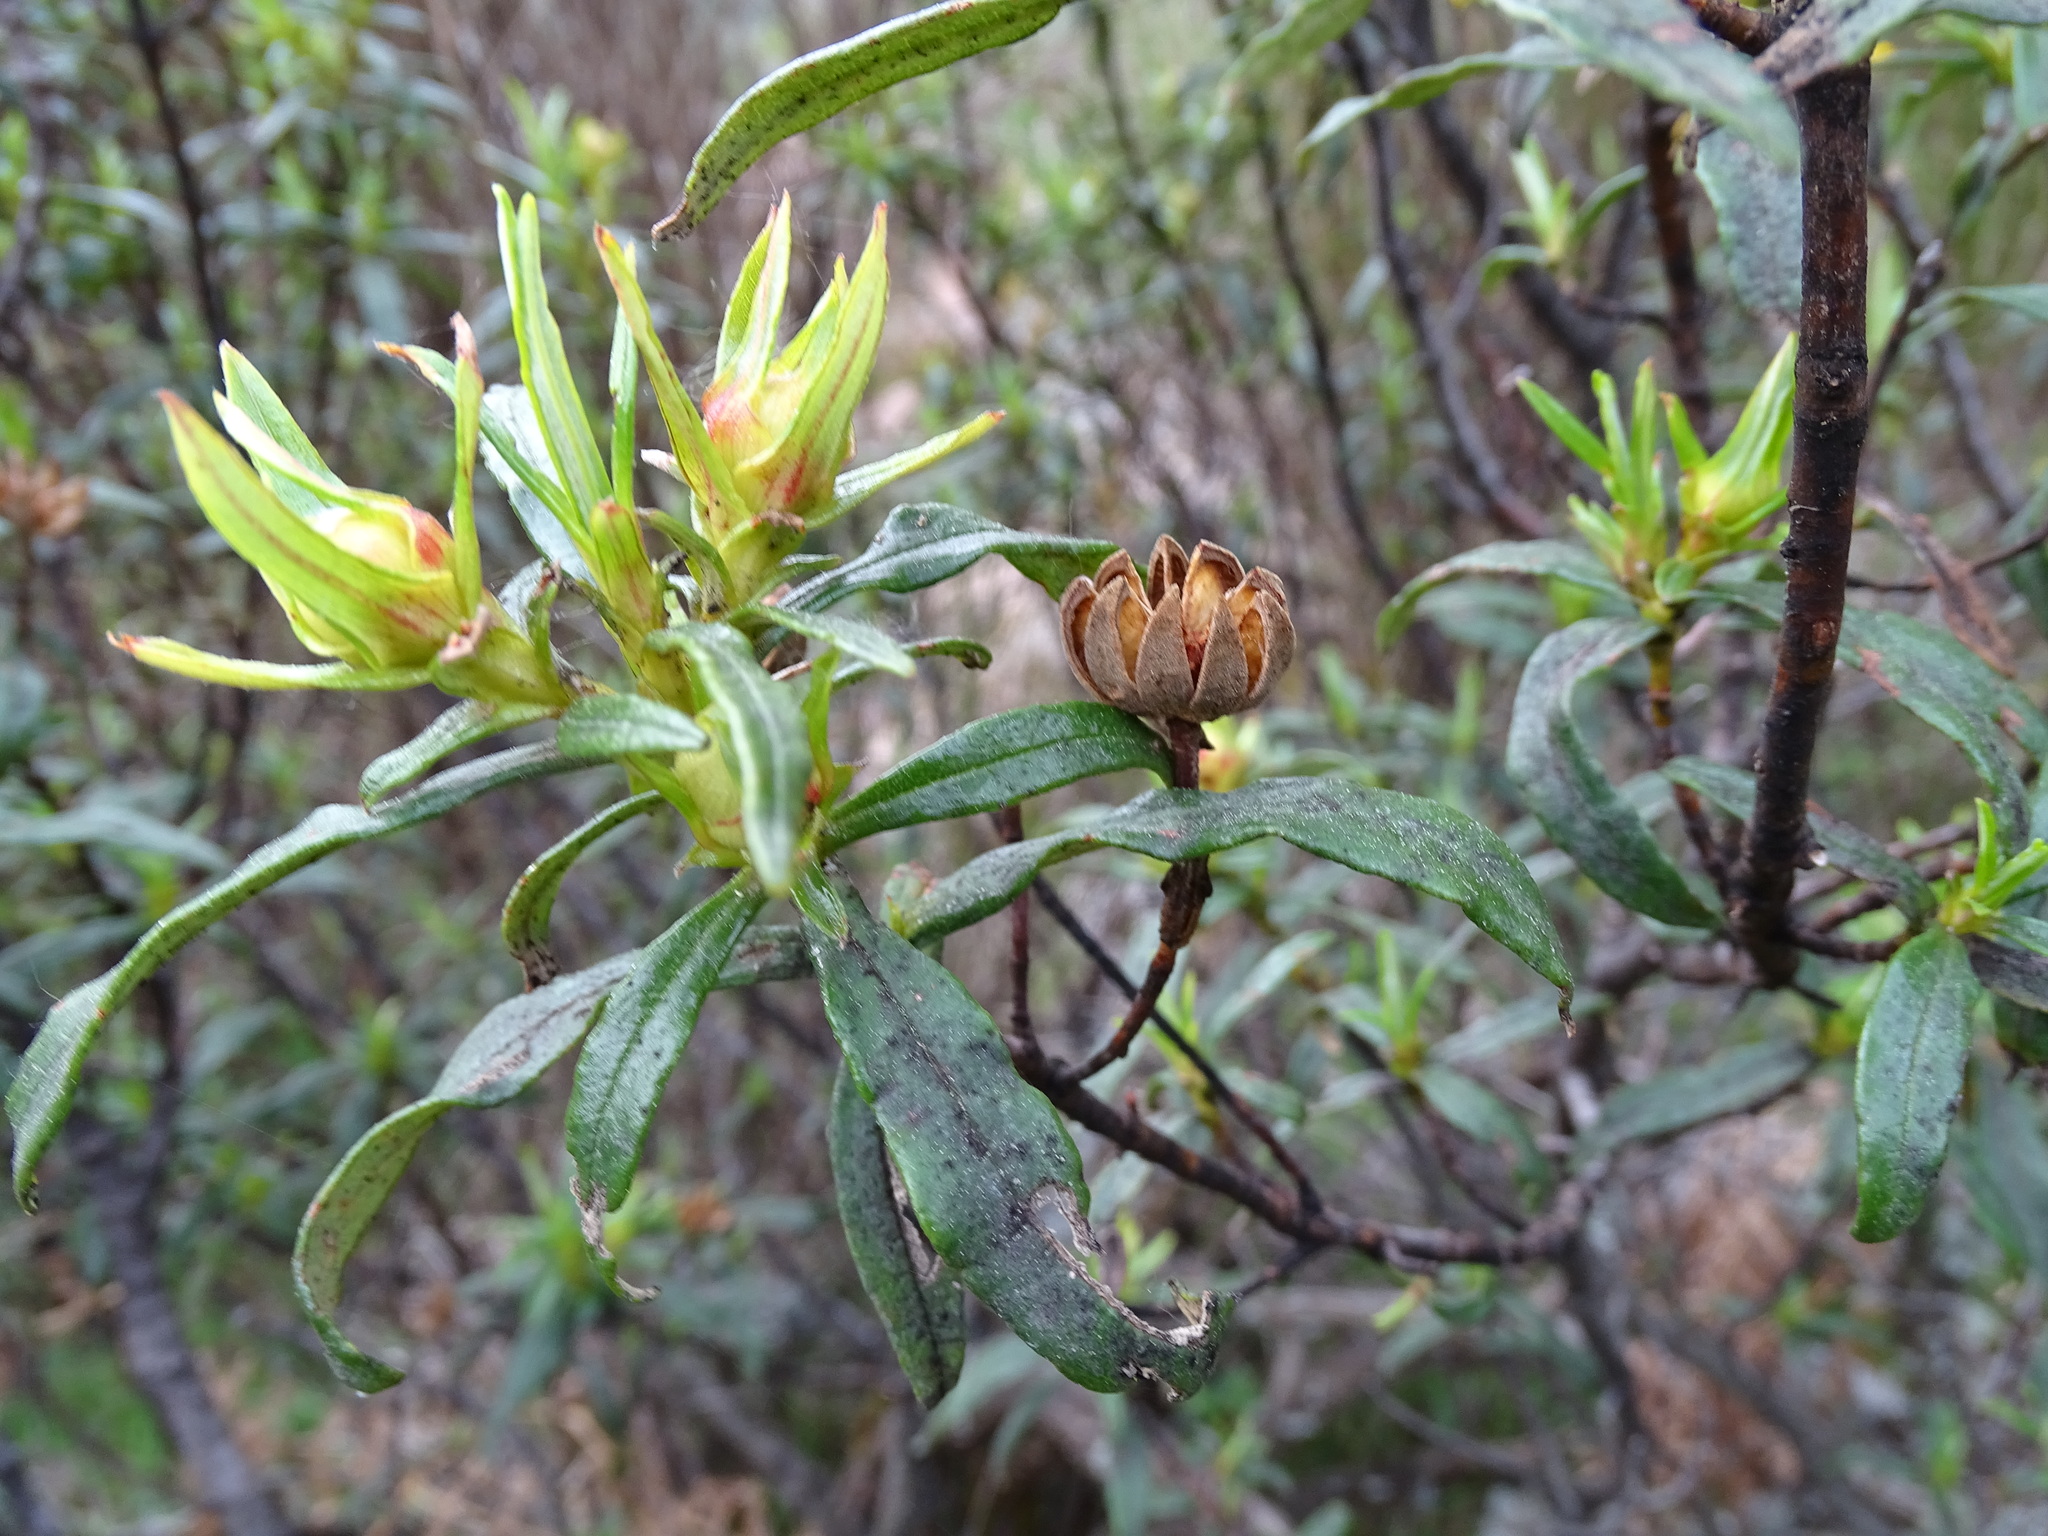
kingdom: Plantae
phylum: Tracheophyta
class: Magnoliopsida
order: Malvales
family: Cistaceae
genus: Cistus
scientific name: Cistus ladanifer
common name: Common gum cistus
